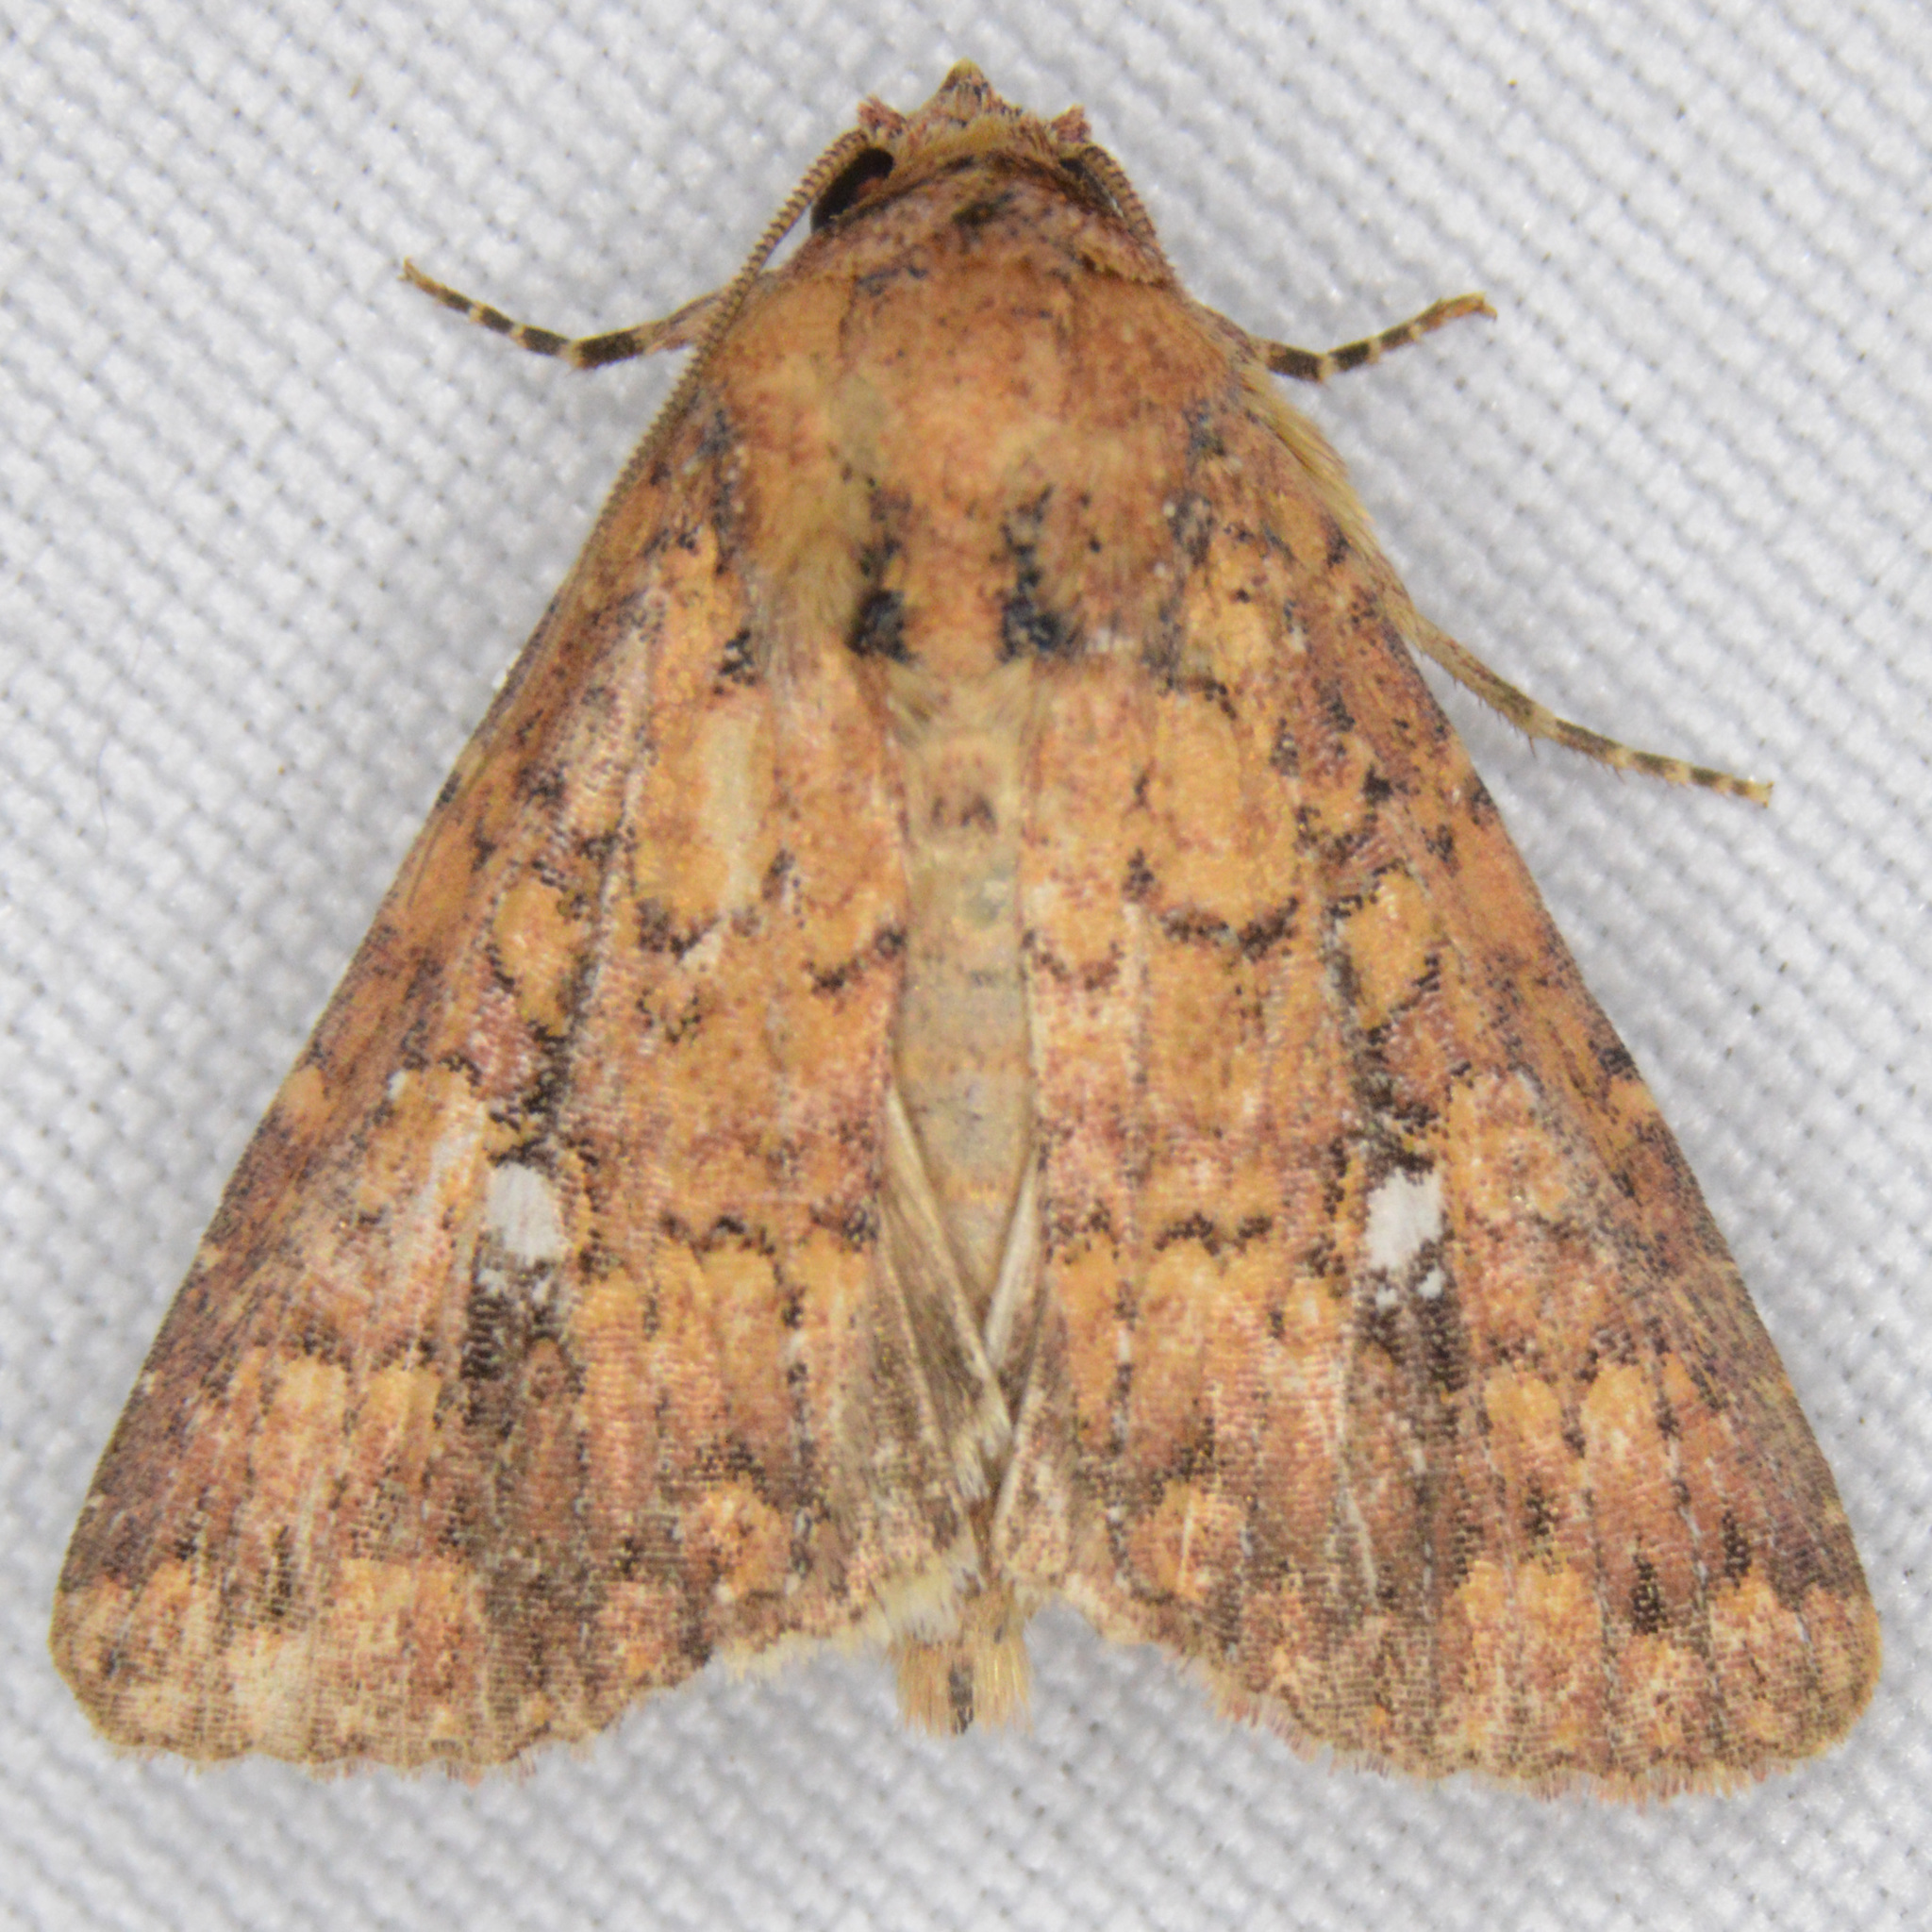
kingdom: Animalia
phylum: Arthropoda
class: Insecta
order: Lepidoptera
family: Noctuidae
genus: Condica
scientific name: Condica mobilis
